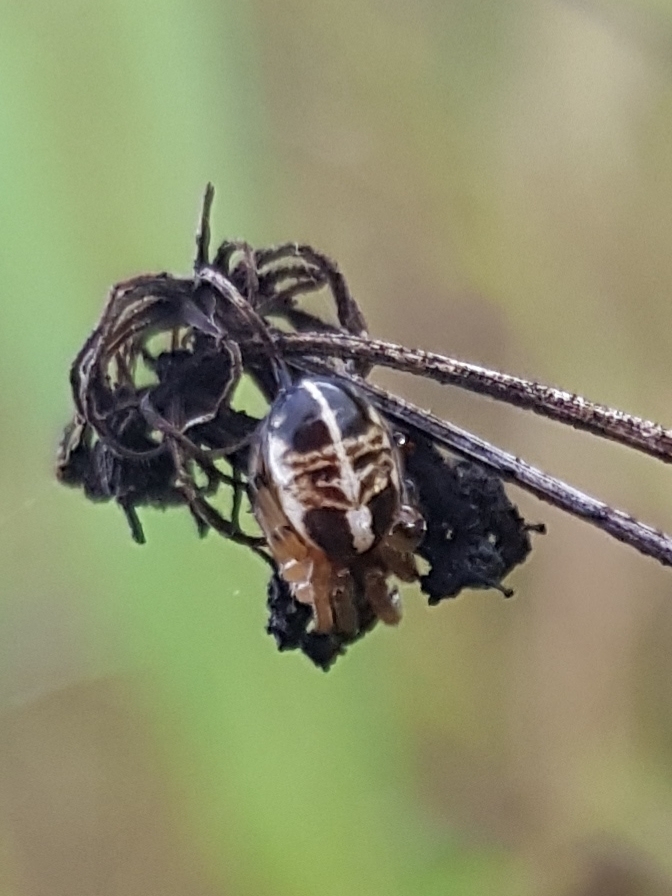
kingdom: Animalia
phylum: Arthropoda
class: Arachnida
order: Araneae
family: Araneidae
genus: Singa
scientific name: Singa hamata
